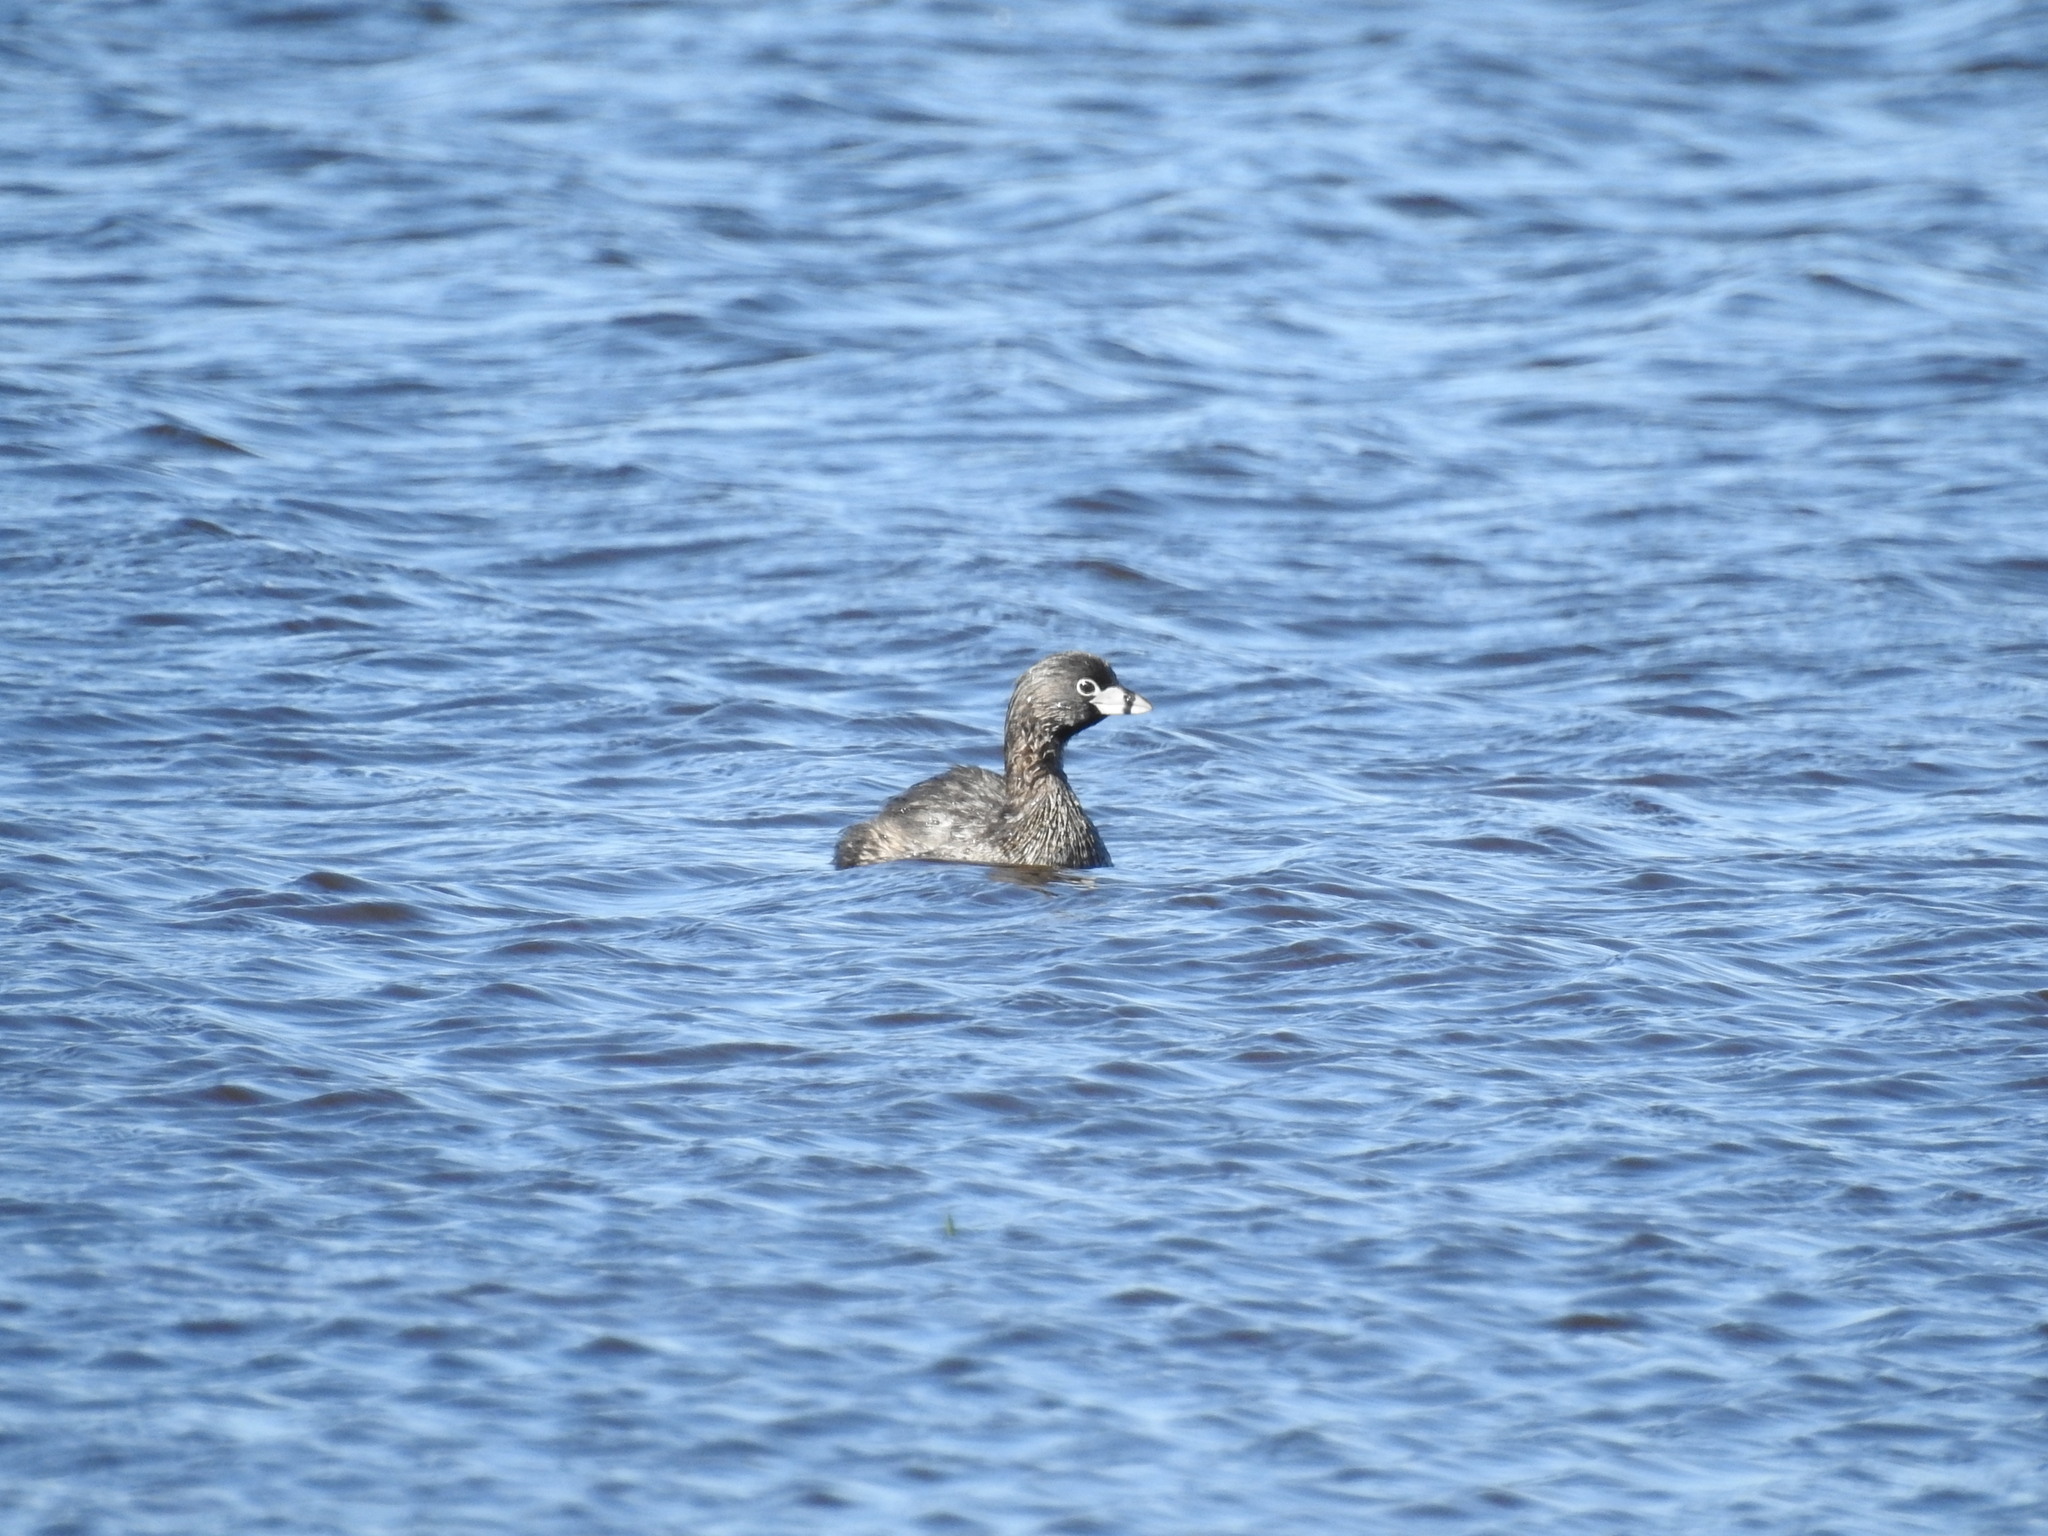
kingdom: Animalia
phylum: Chordata
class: Aves
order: Podicipediformes
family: Podicipedidae
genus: Podilymbus
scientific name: Podilymbus podiceps
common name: Pied-billed grebe
